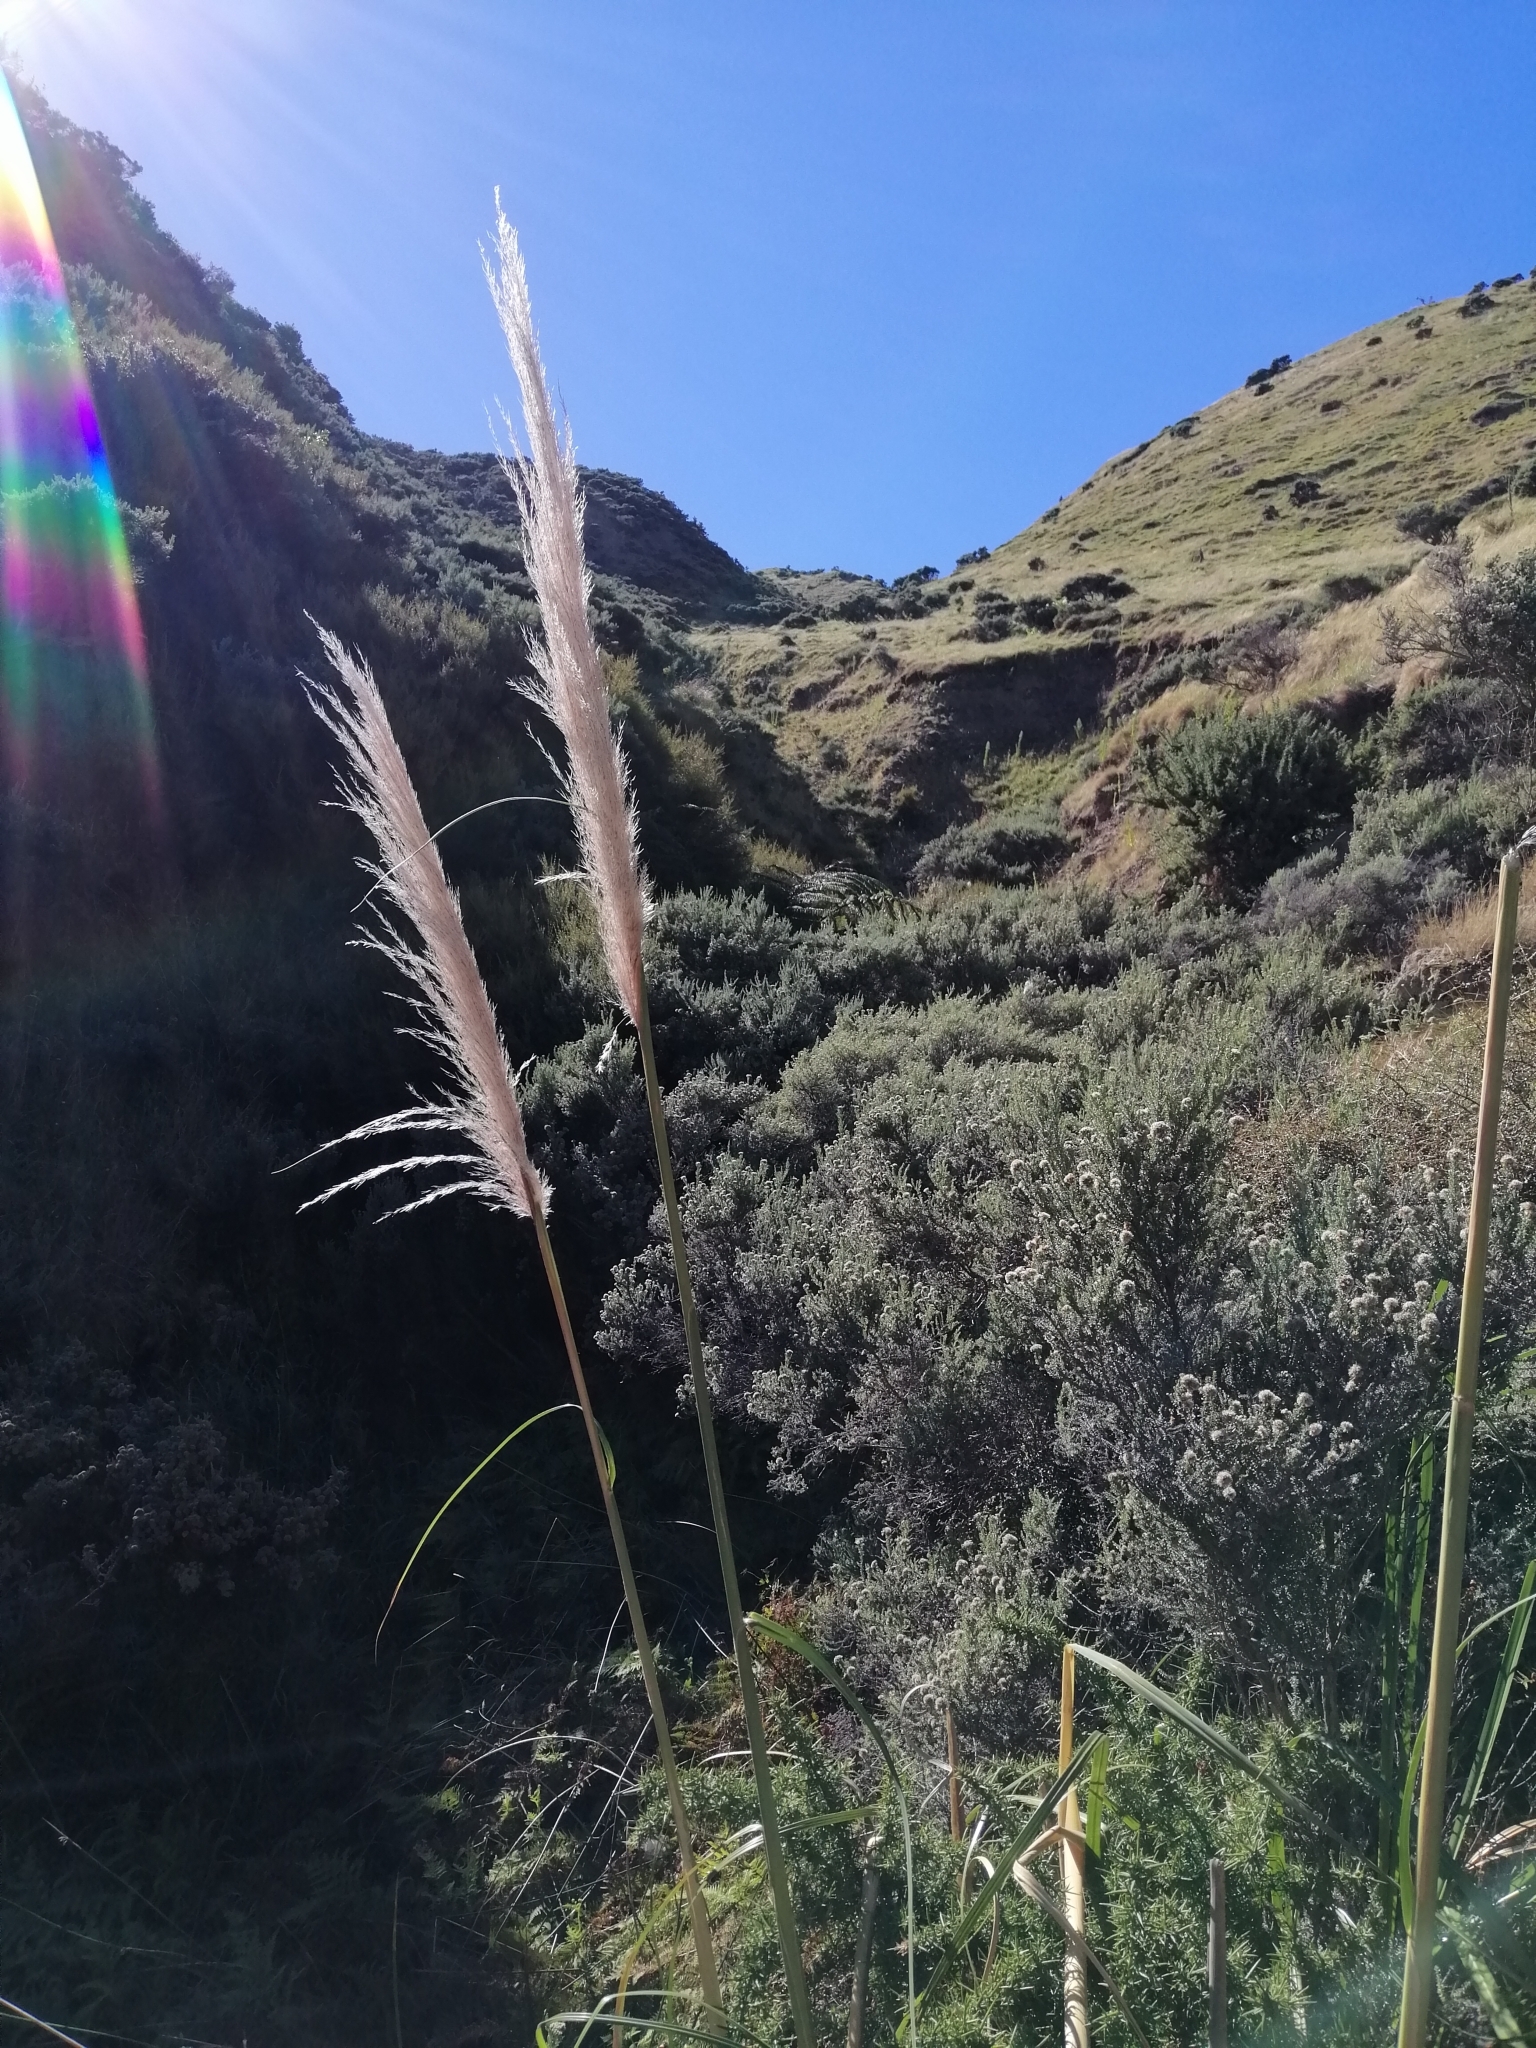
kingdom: Plantae
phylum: Tracheophyta
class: Liliopsida
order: Poales
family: Poaceae
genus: Cortaderia
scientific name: Cortaderia selloana
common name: Uruguayan pampas grass
